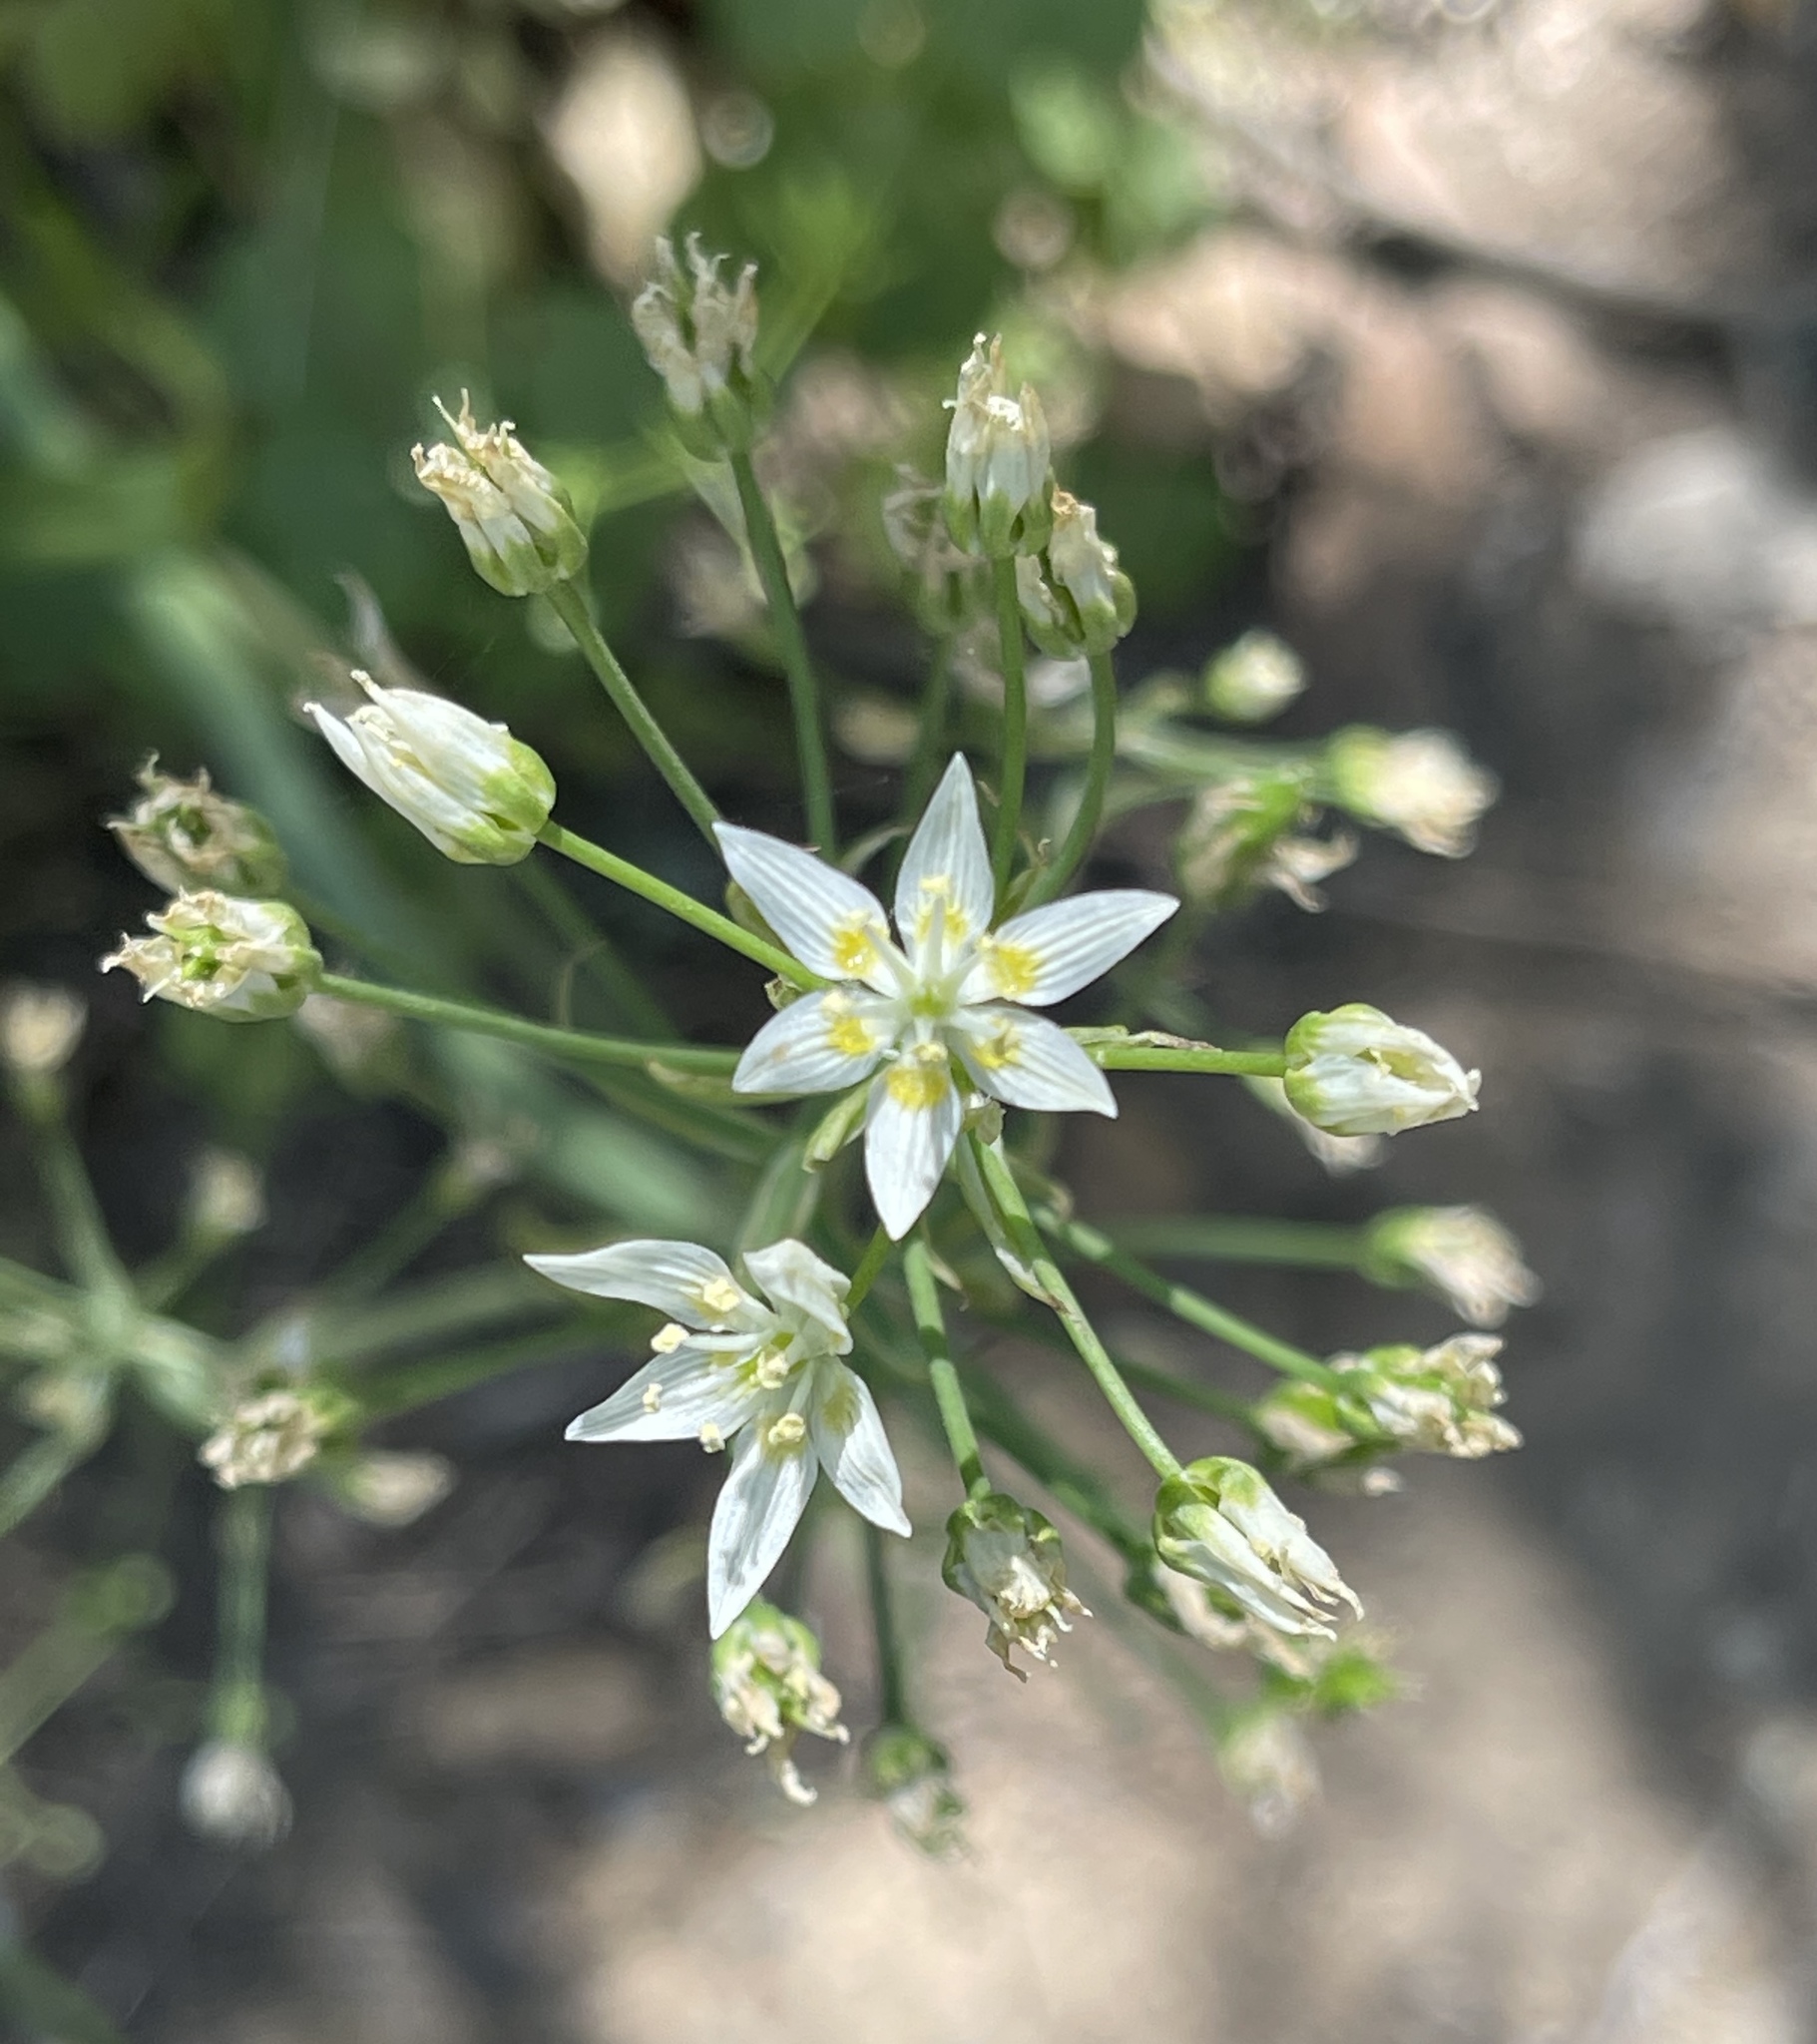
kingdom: Plantae
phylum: Tracheophyta
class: Liliopsida
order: Liliales
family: Melanthiaceae
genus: Toxicoscordion
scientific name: Toxicoscordion fremontii
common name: Fremont's death camas
